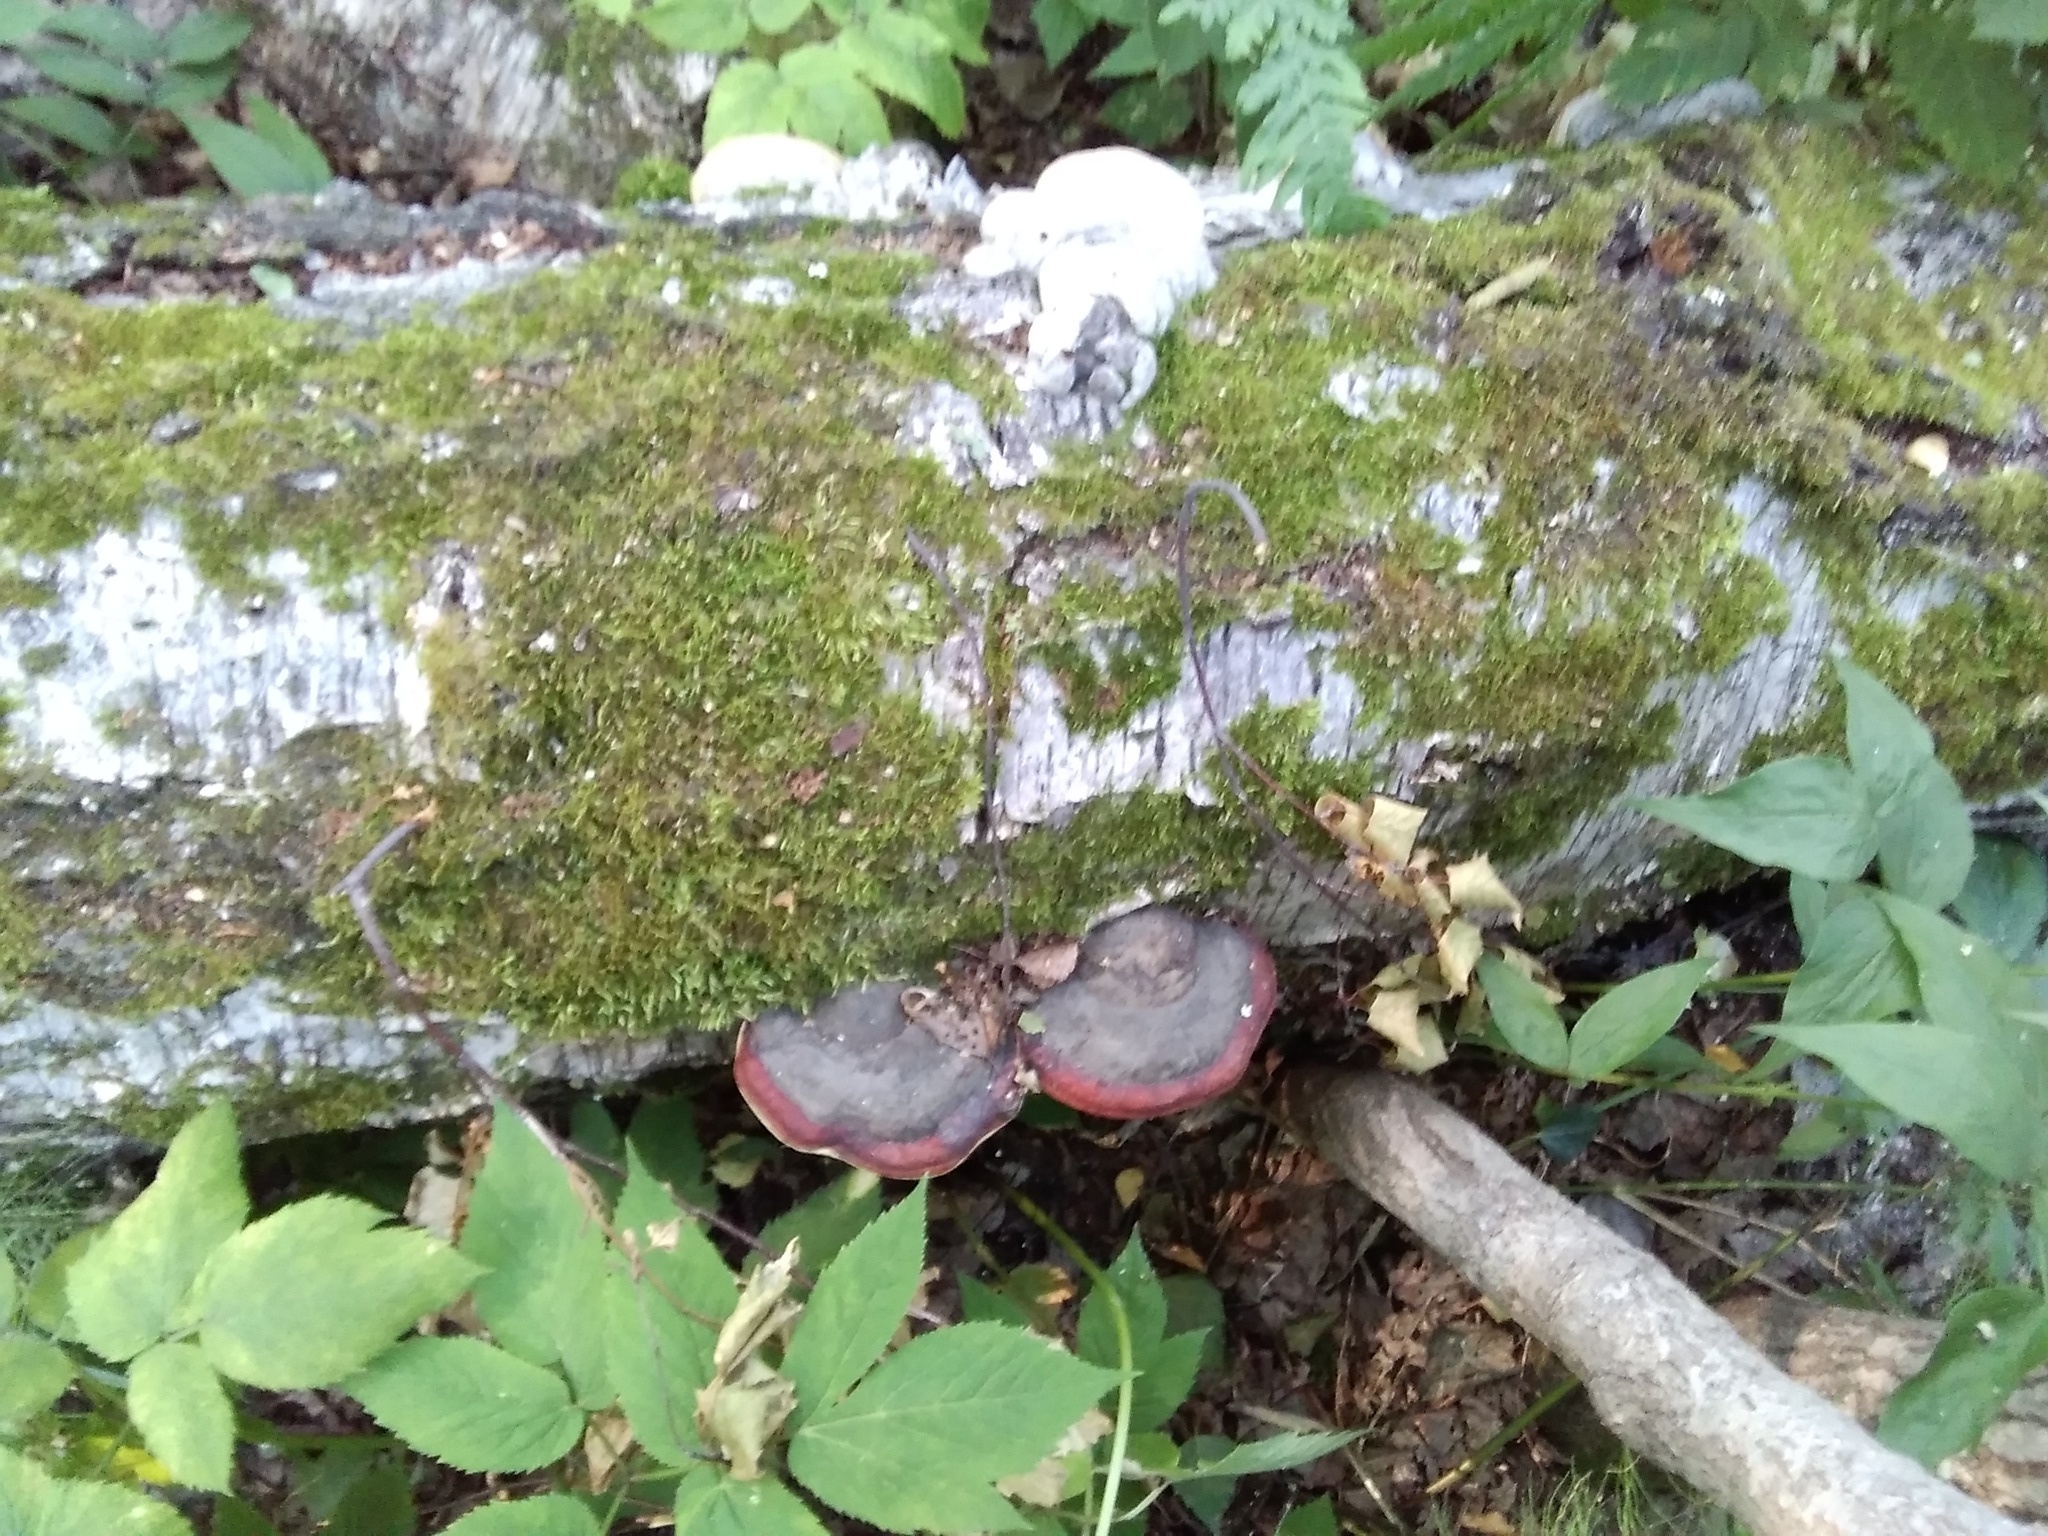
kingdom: Fungi
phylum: Basidiomycota
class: Agaricomycetes
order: Polyporales
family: Fomitopsidaceae
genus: Fomitopsis
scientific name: Fomitopsis pinicola
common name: Red-belted bracket
